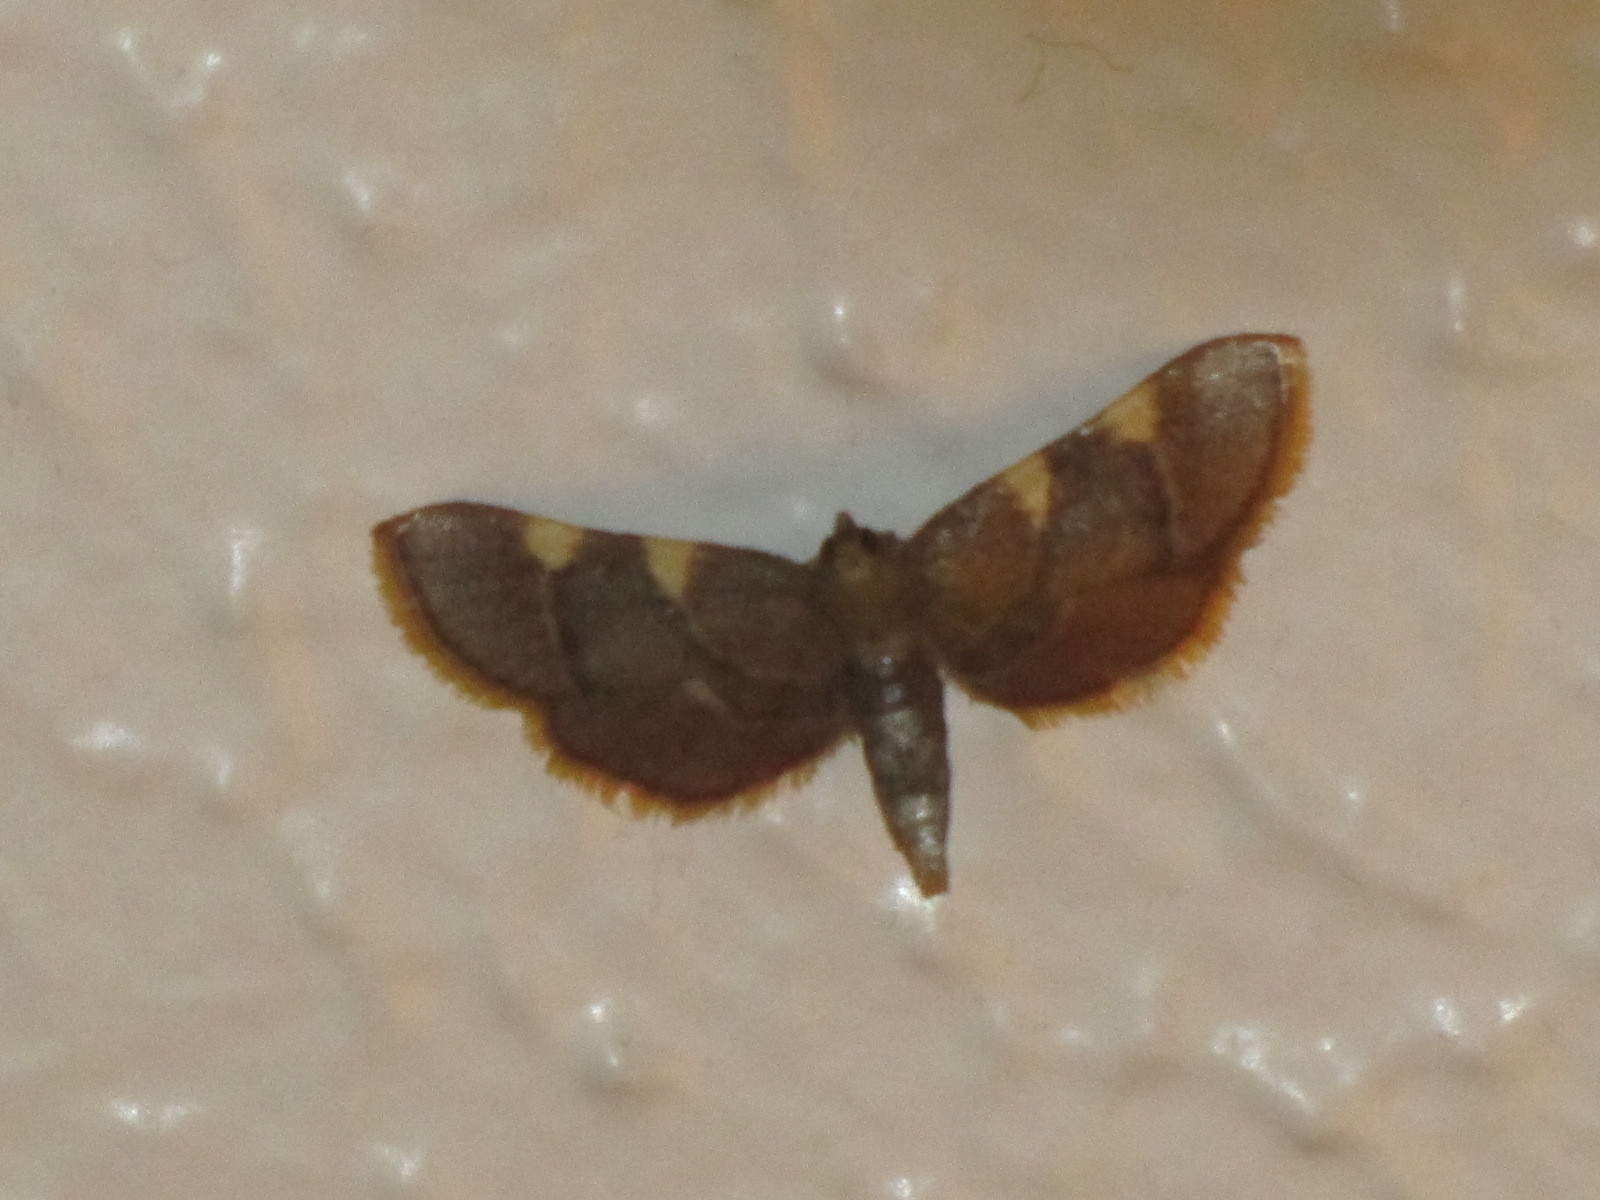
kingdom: Animalia
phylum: Arthropoda
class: Insecta
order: Lepidoptera
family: Pyralidae
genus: Hypsopygia
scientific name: Hypsopygia olinalis
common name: Yellow-fringed dolichomia moth
